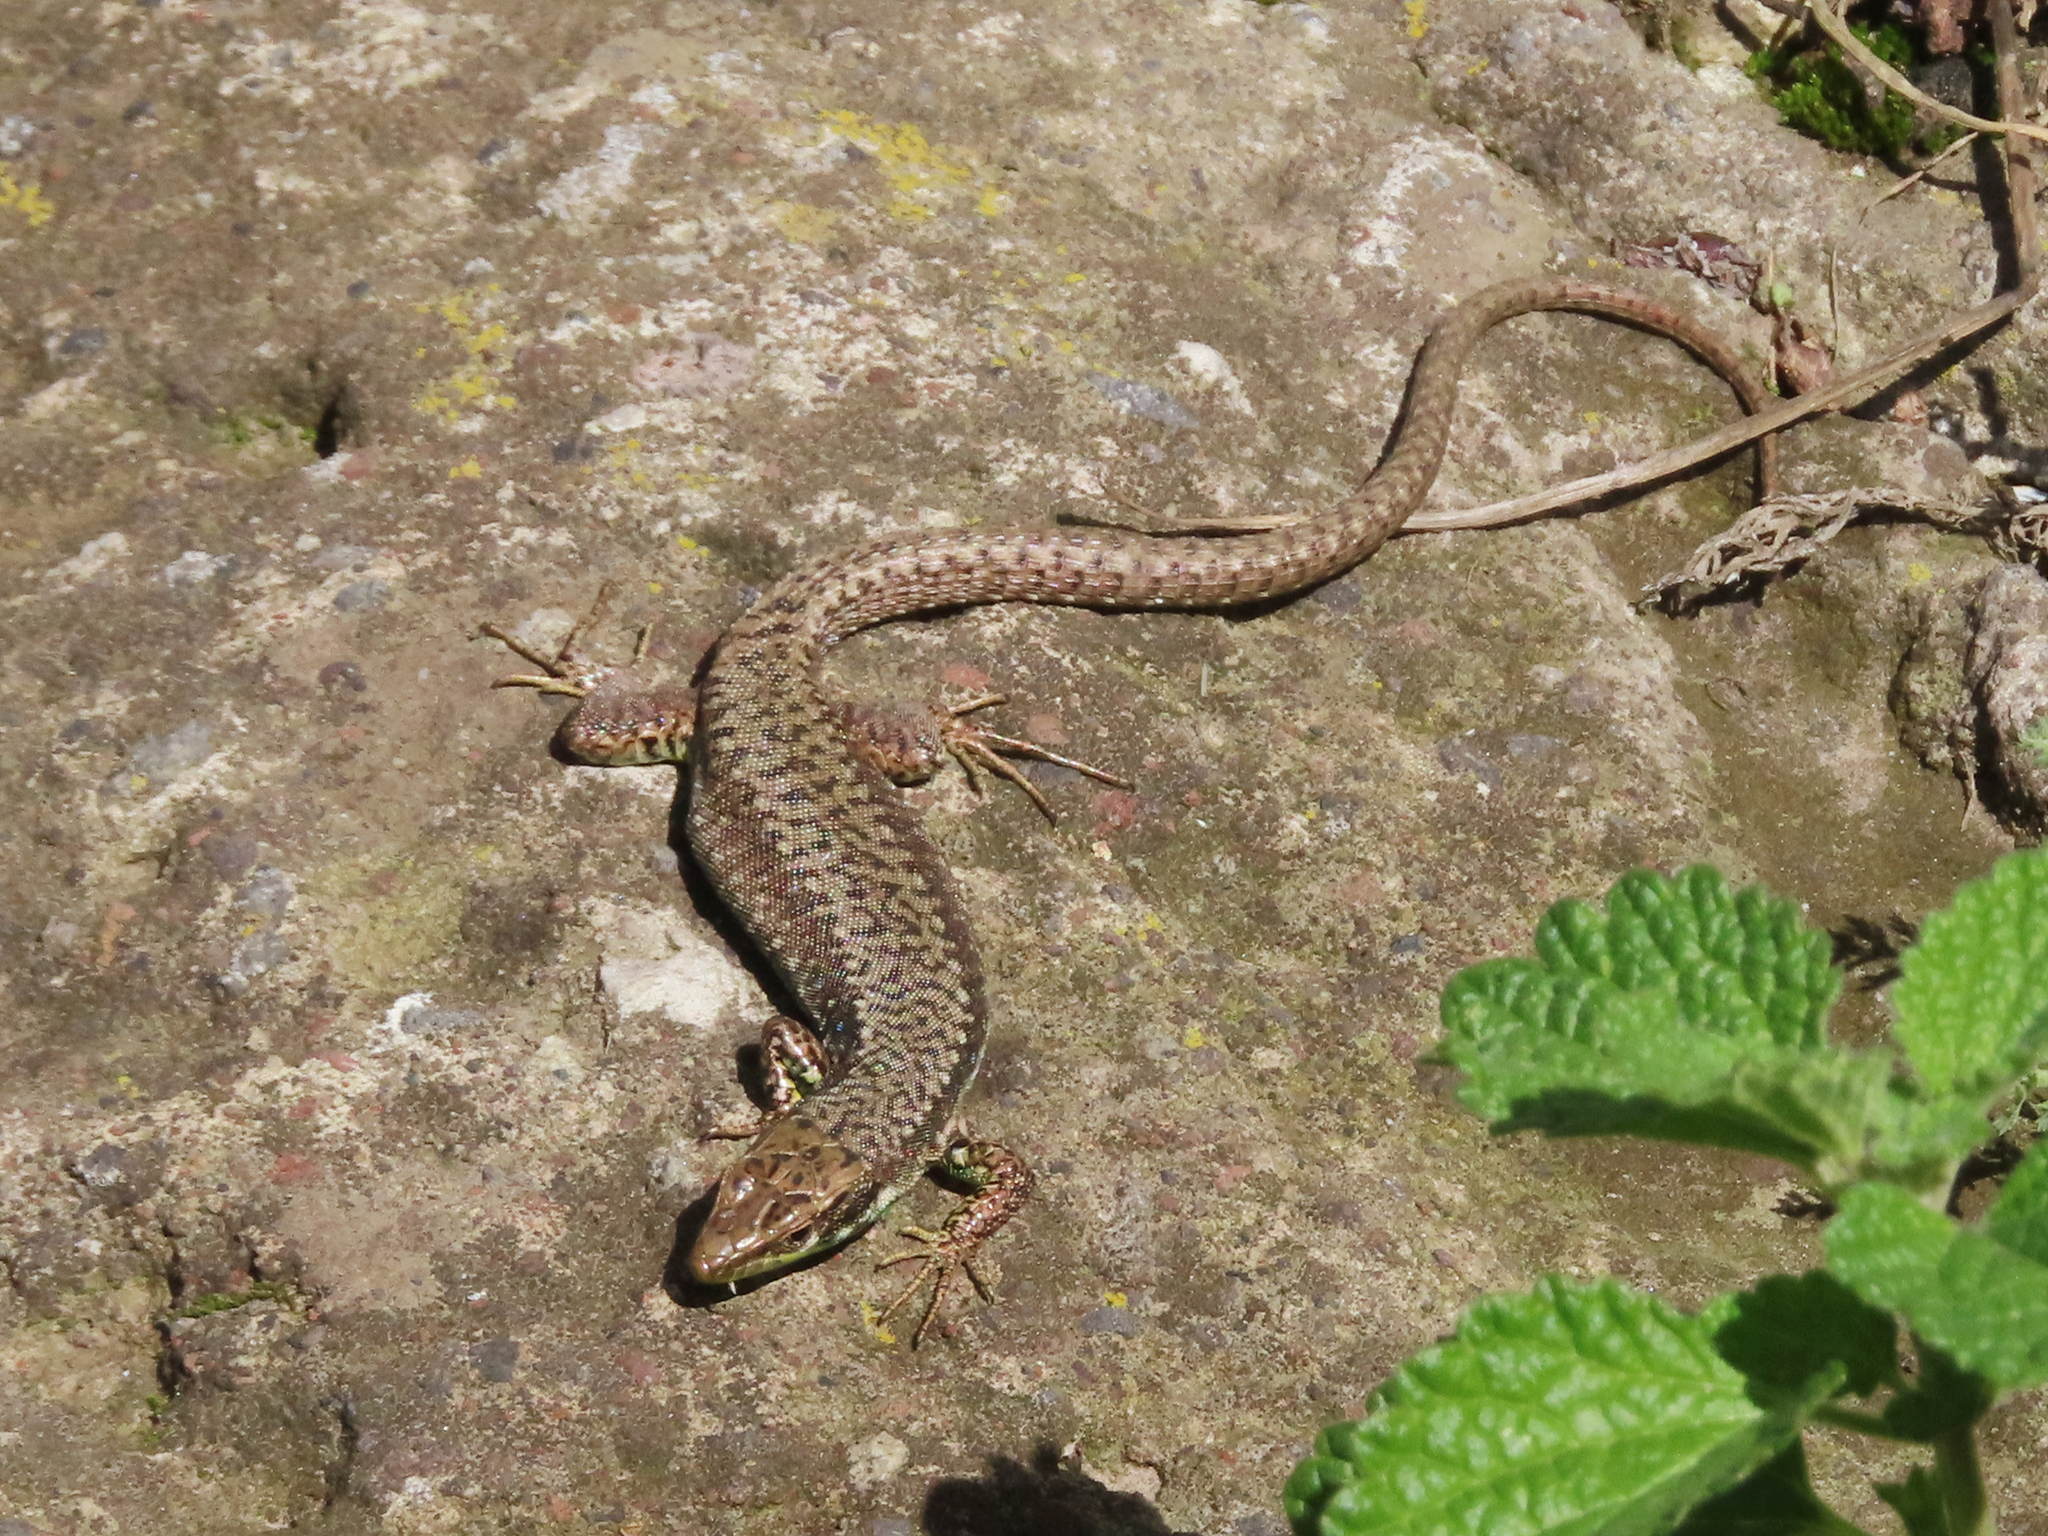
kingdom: Animalia
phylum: Chordata
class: Squamata
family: Lacertidae
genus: Darevskia
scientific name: Darevskia raddei
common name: Radde's lizard
